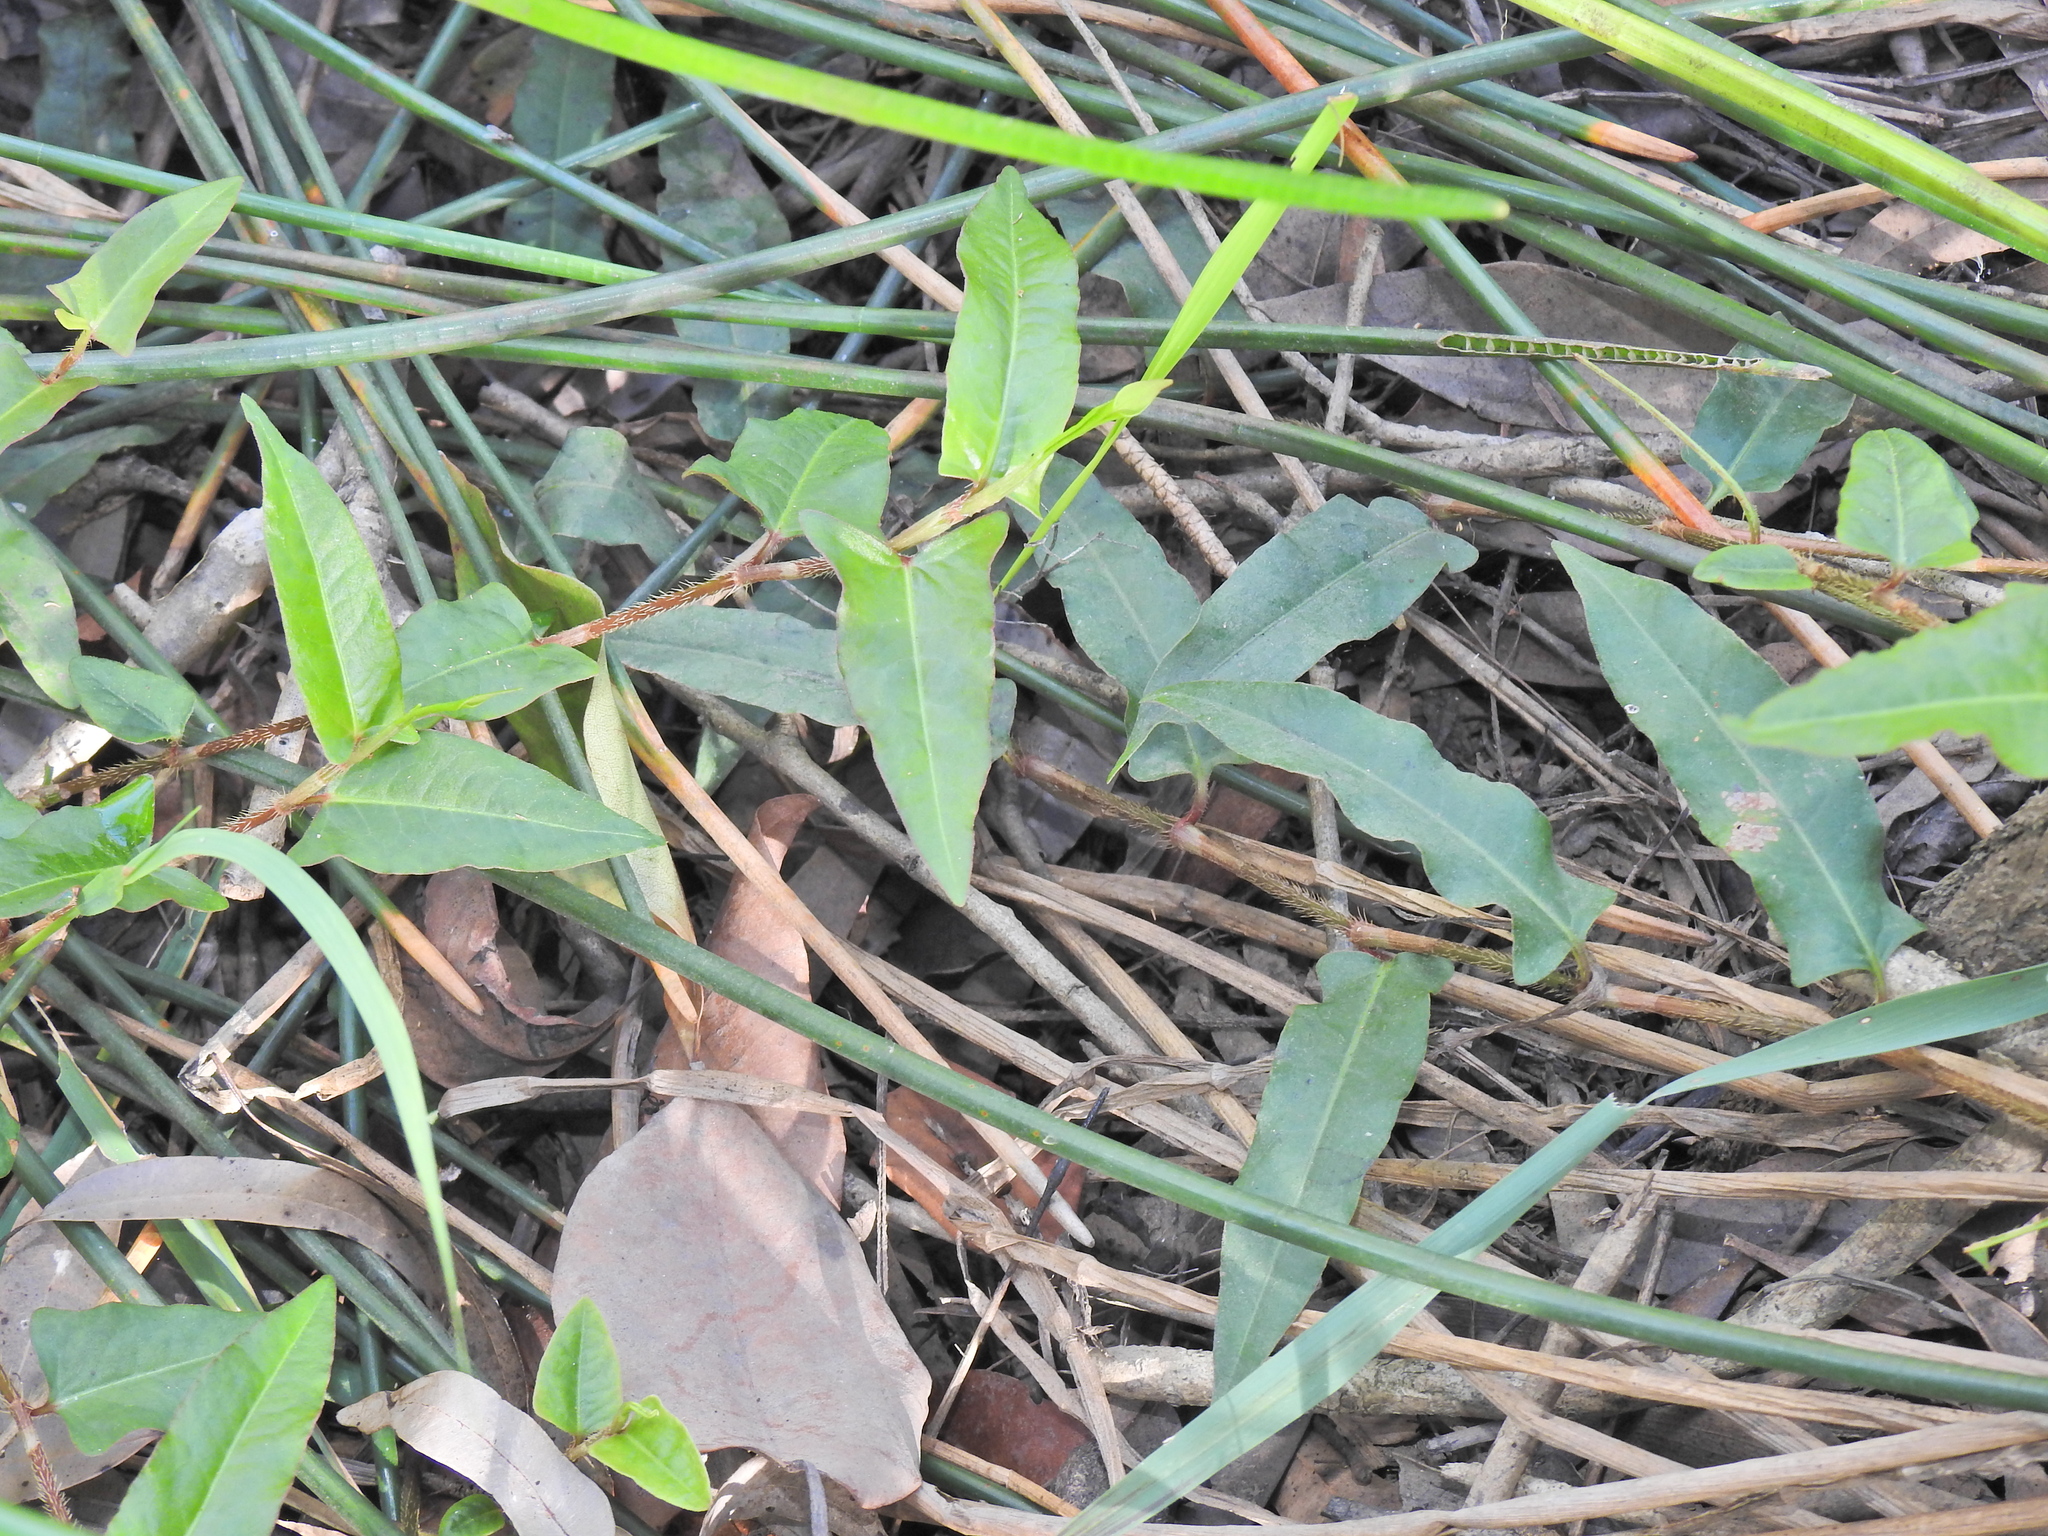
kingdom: Plantae
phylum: Tracheophyta
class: Magnoliopsida
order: Caryophyllales
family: Polygonaceae
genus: Persicaria
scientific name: Persicaria strigosa
